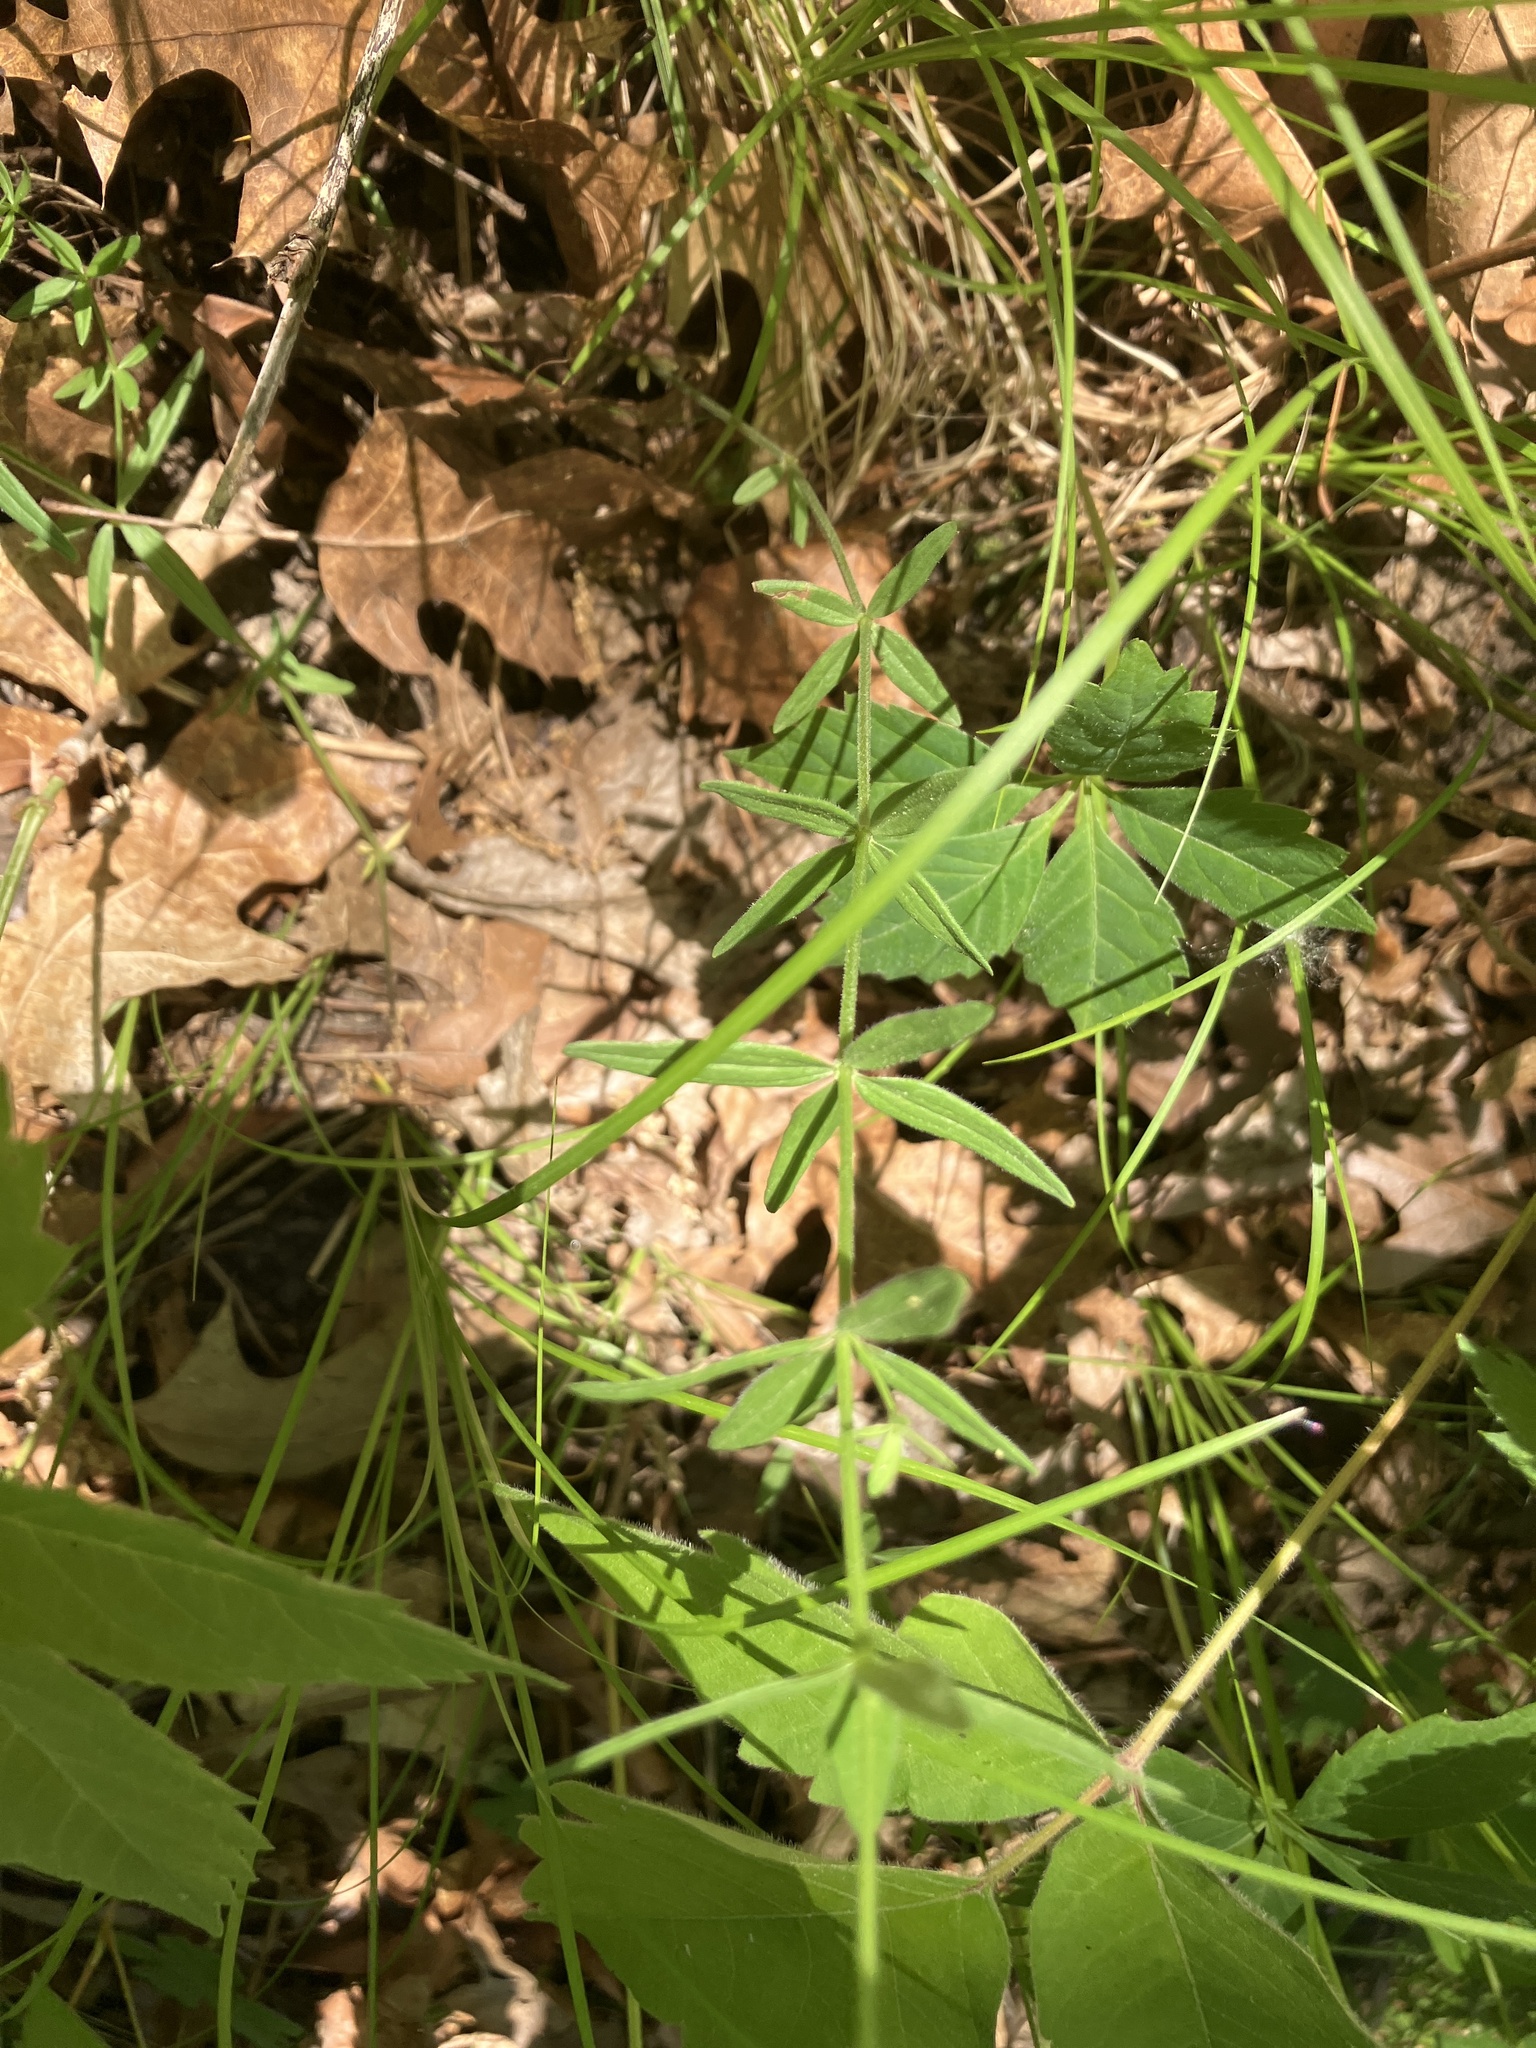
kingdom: Plantae
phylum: Tracheophyta
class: Magnoliopsida
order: Gentianales
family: Rubiaceae
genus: Galium
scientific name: Galium boreale
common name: Northern bedstraw
